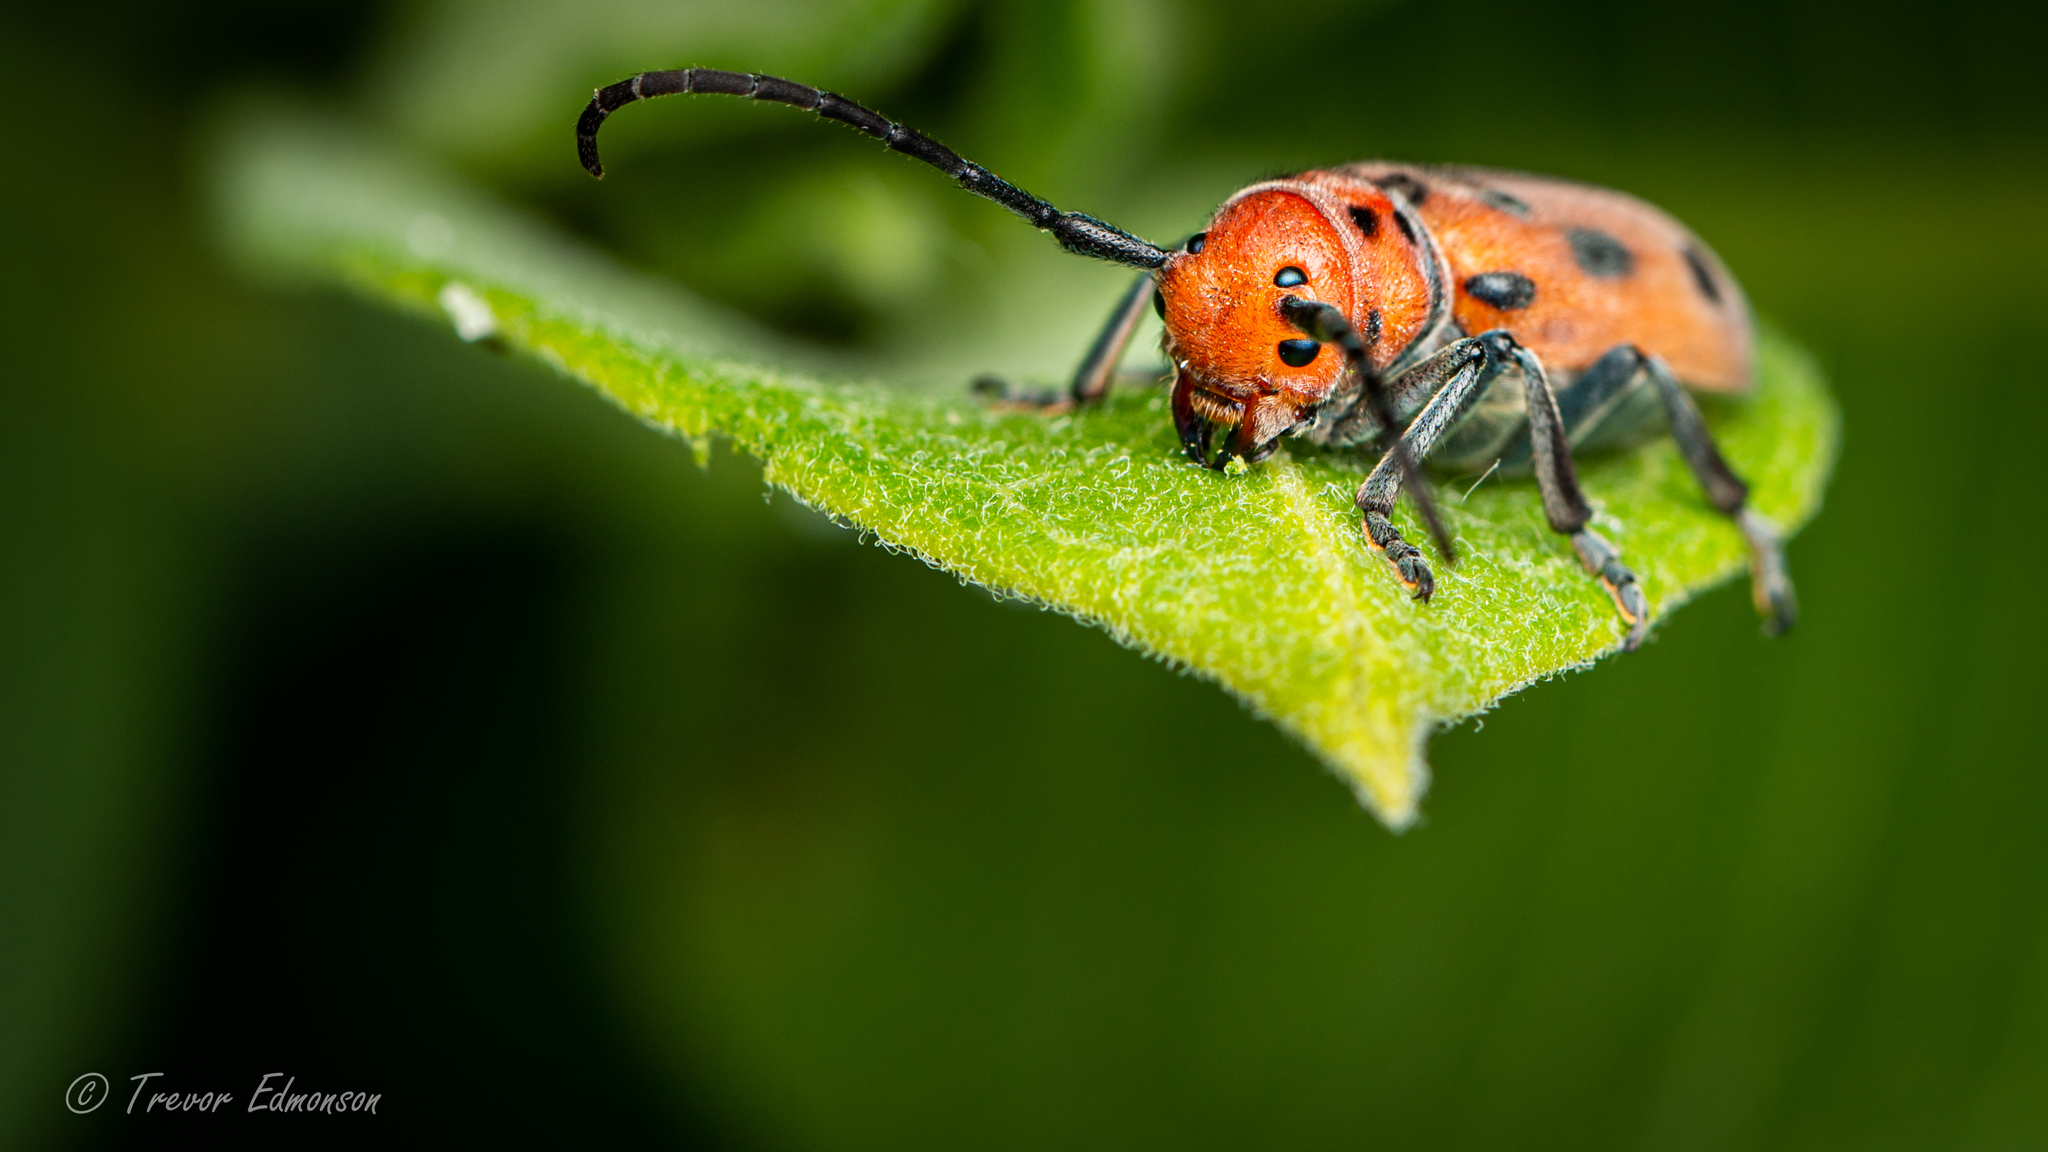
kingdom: Animalia
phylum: Arthropoda
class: Insecta
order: Coleoptera
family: Cerambycidae
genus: Tetraopes
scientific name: Tetraopes tetrophthalmus
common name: Red milkweed beetle
